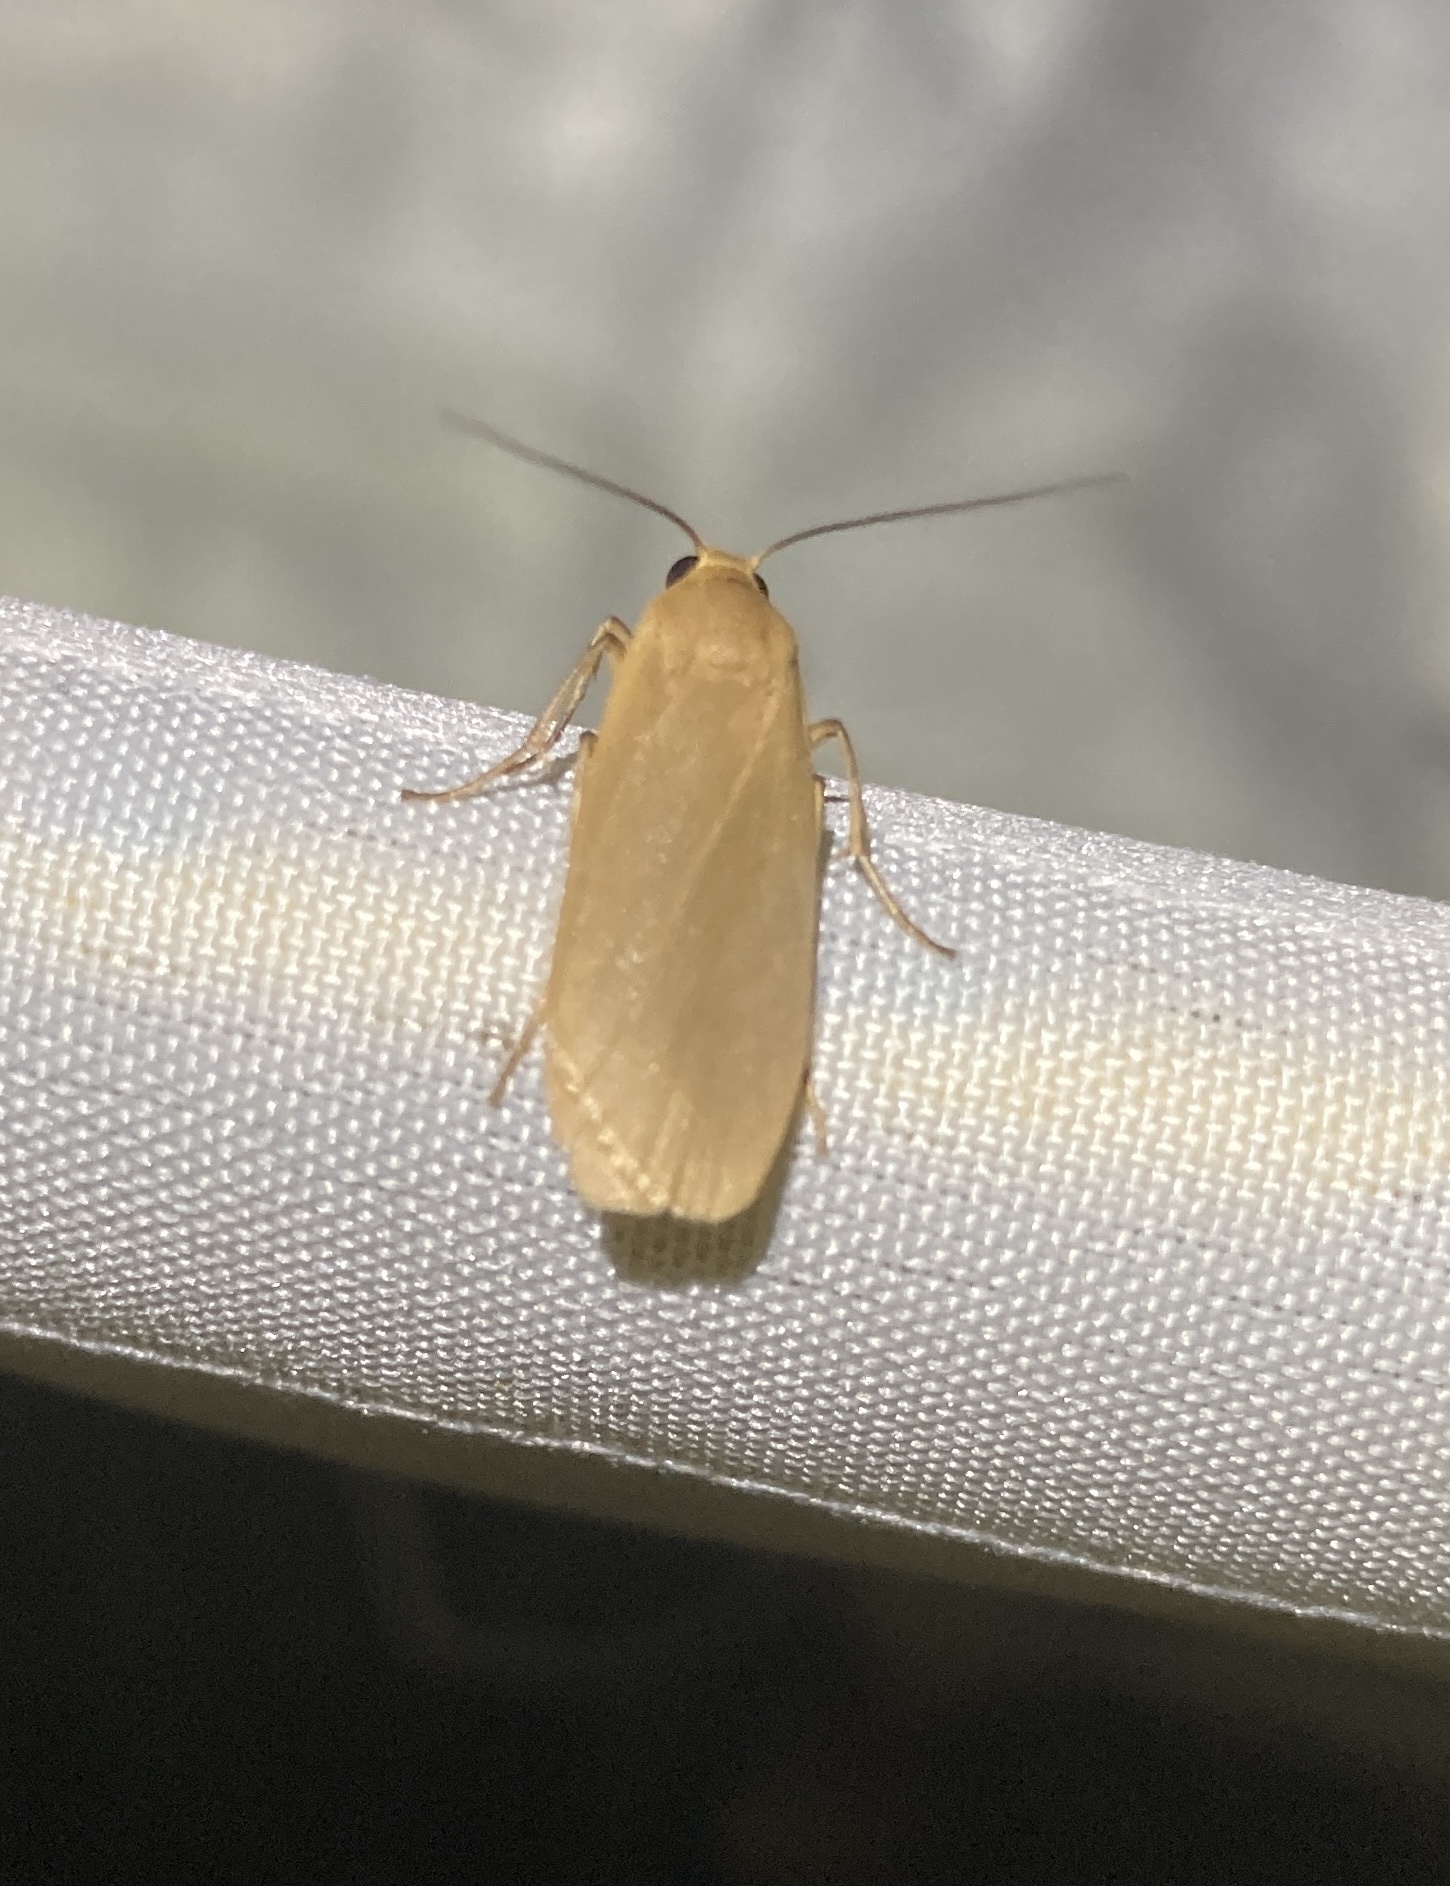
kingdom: Animalia
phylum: Arthropoda
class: Insecta
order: Lepidoptera
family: Erebidae
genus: Eilema
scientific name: Eilema plana
